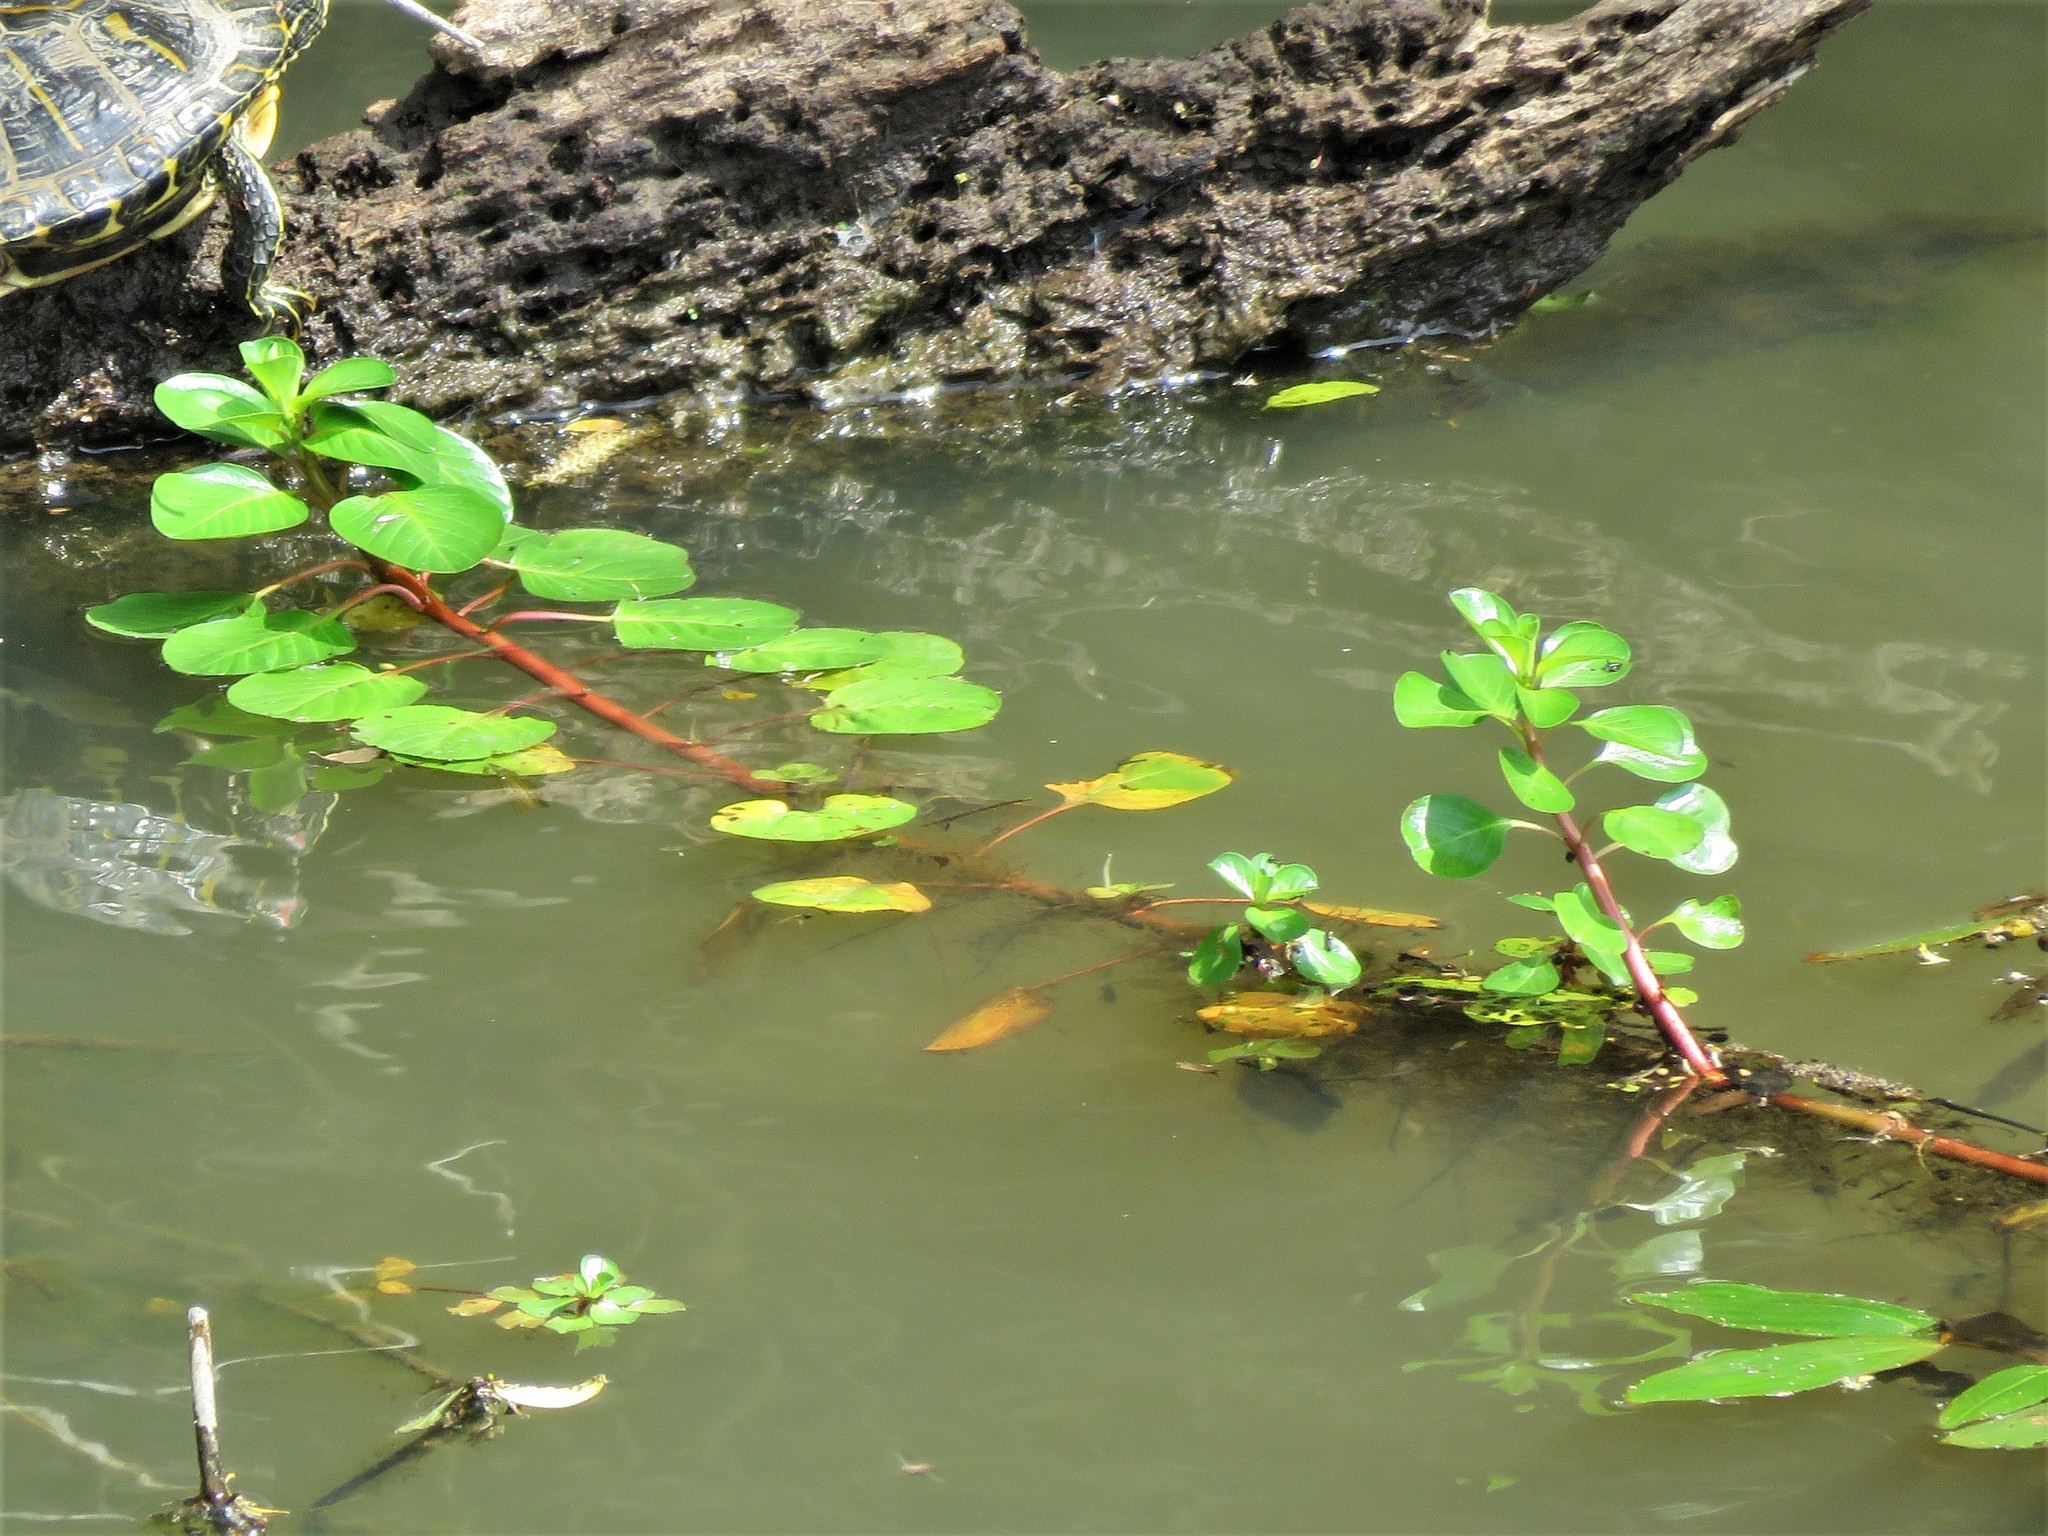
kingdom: Plantae
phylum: Tracheophyta
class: Magnoliopsida
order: Myrtales
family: Onagraceae
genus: Ludwigia
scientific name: Ludwigia peploides
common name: Floating primrose-willow
